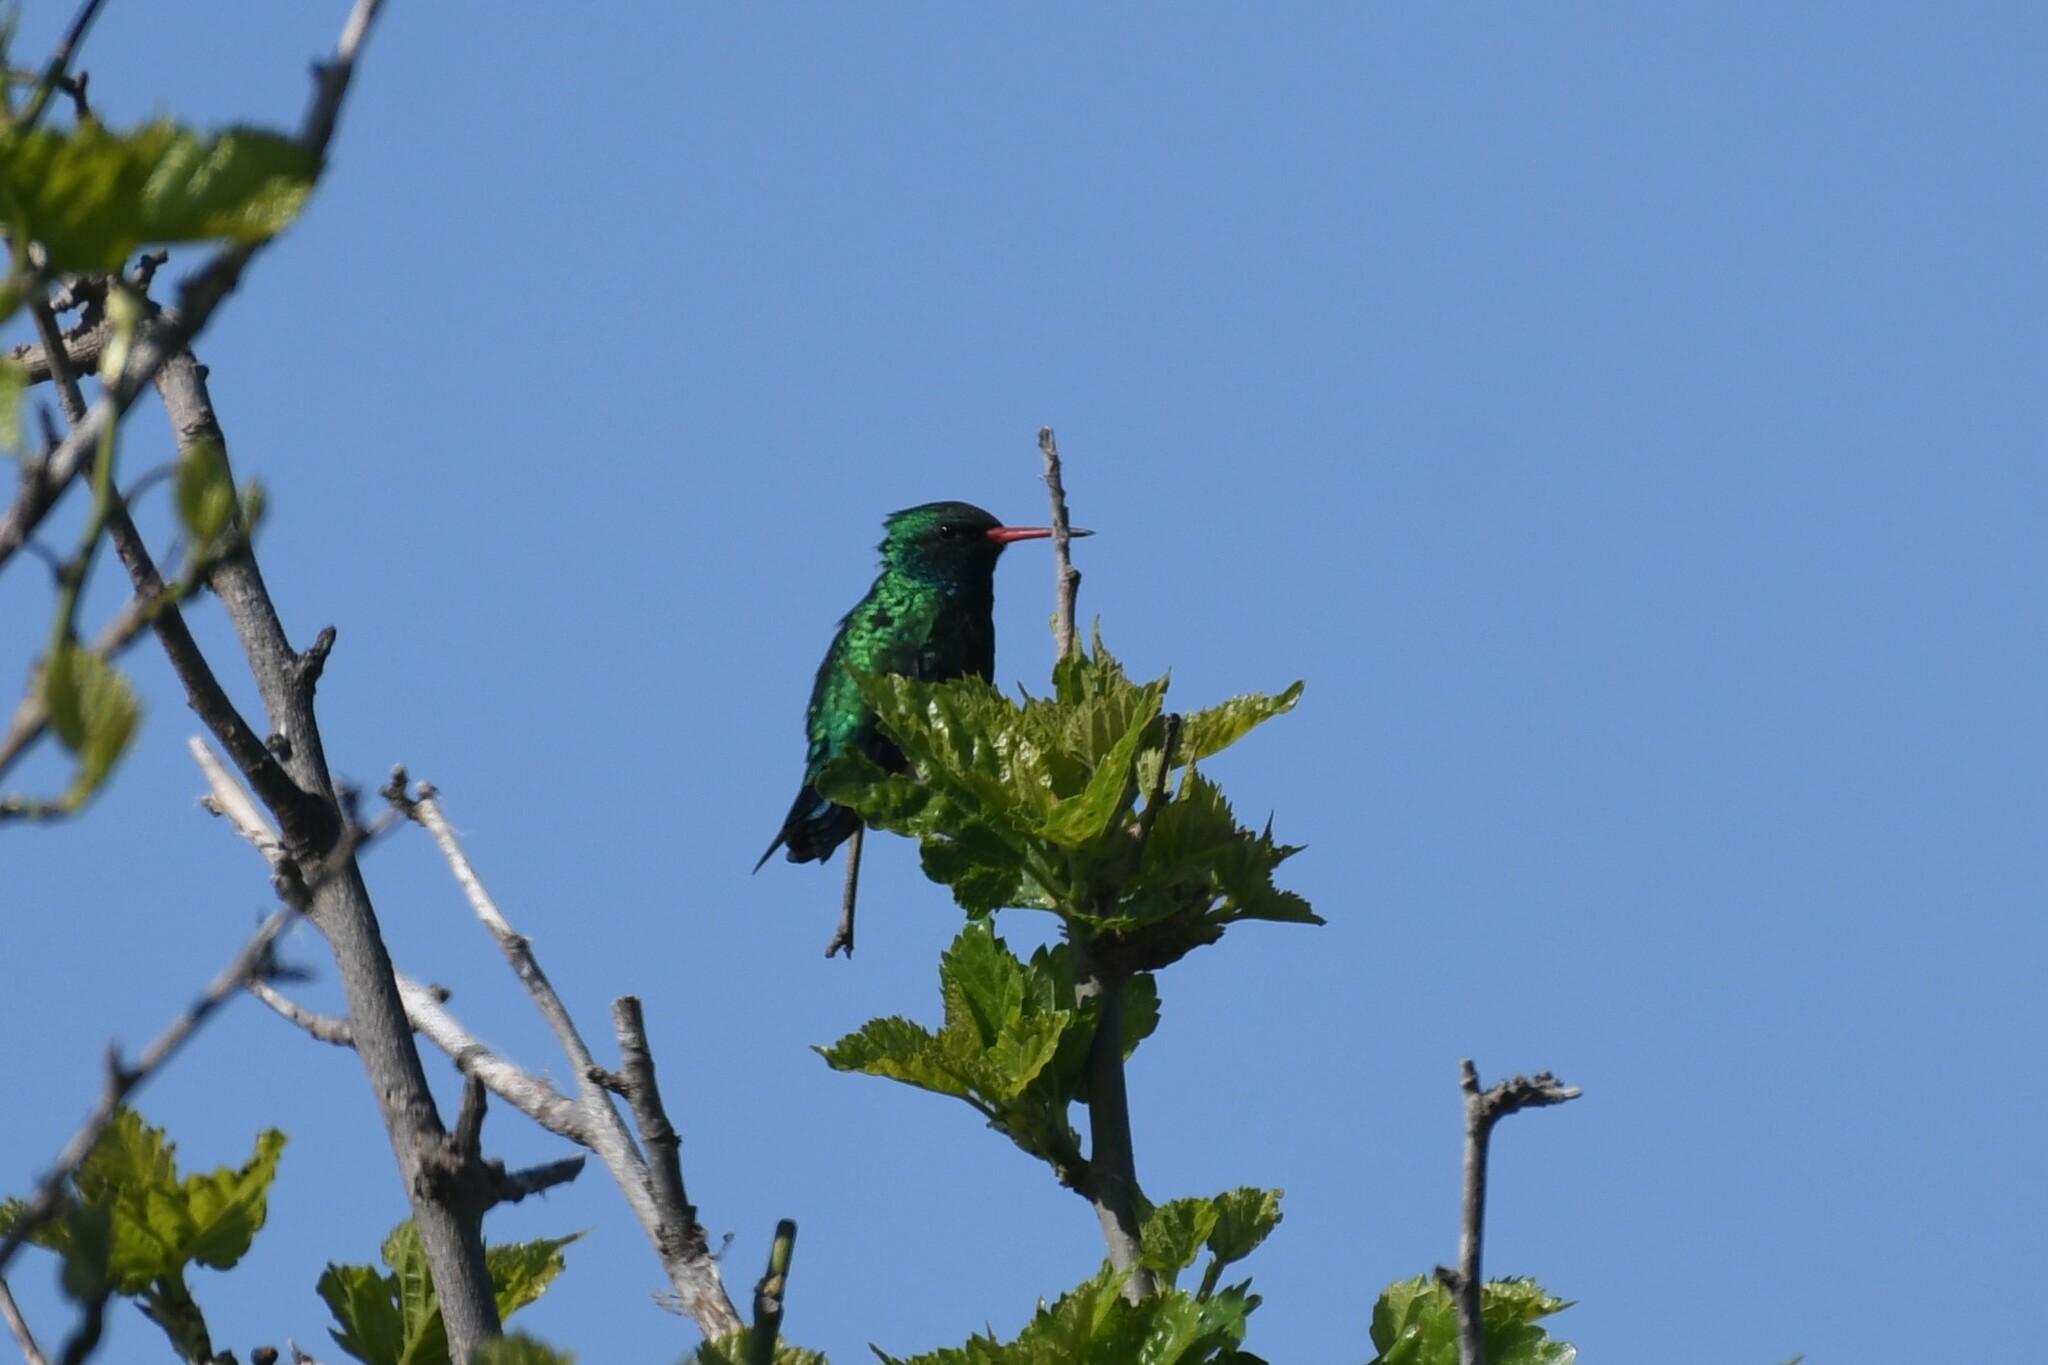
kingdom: Animalia
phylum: Chordata
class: Aves
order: Apodiformes
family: Trochilidae
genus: Chlorostilbon
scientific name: Chlorostilbon lucidus
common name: Glittering-bellied emerald
